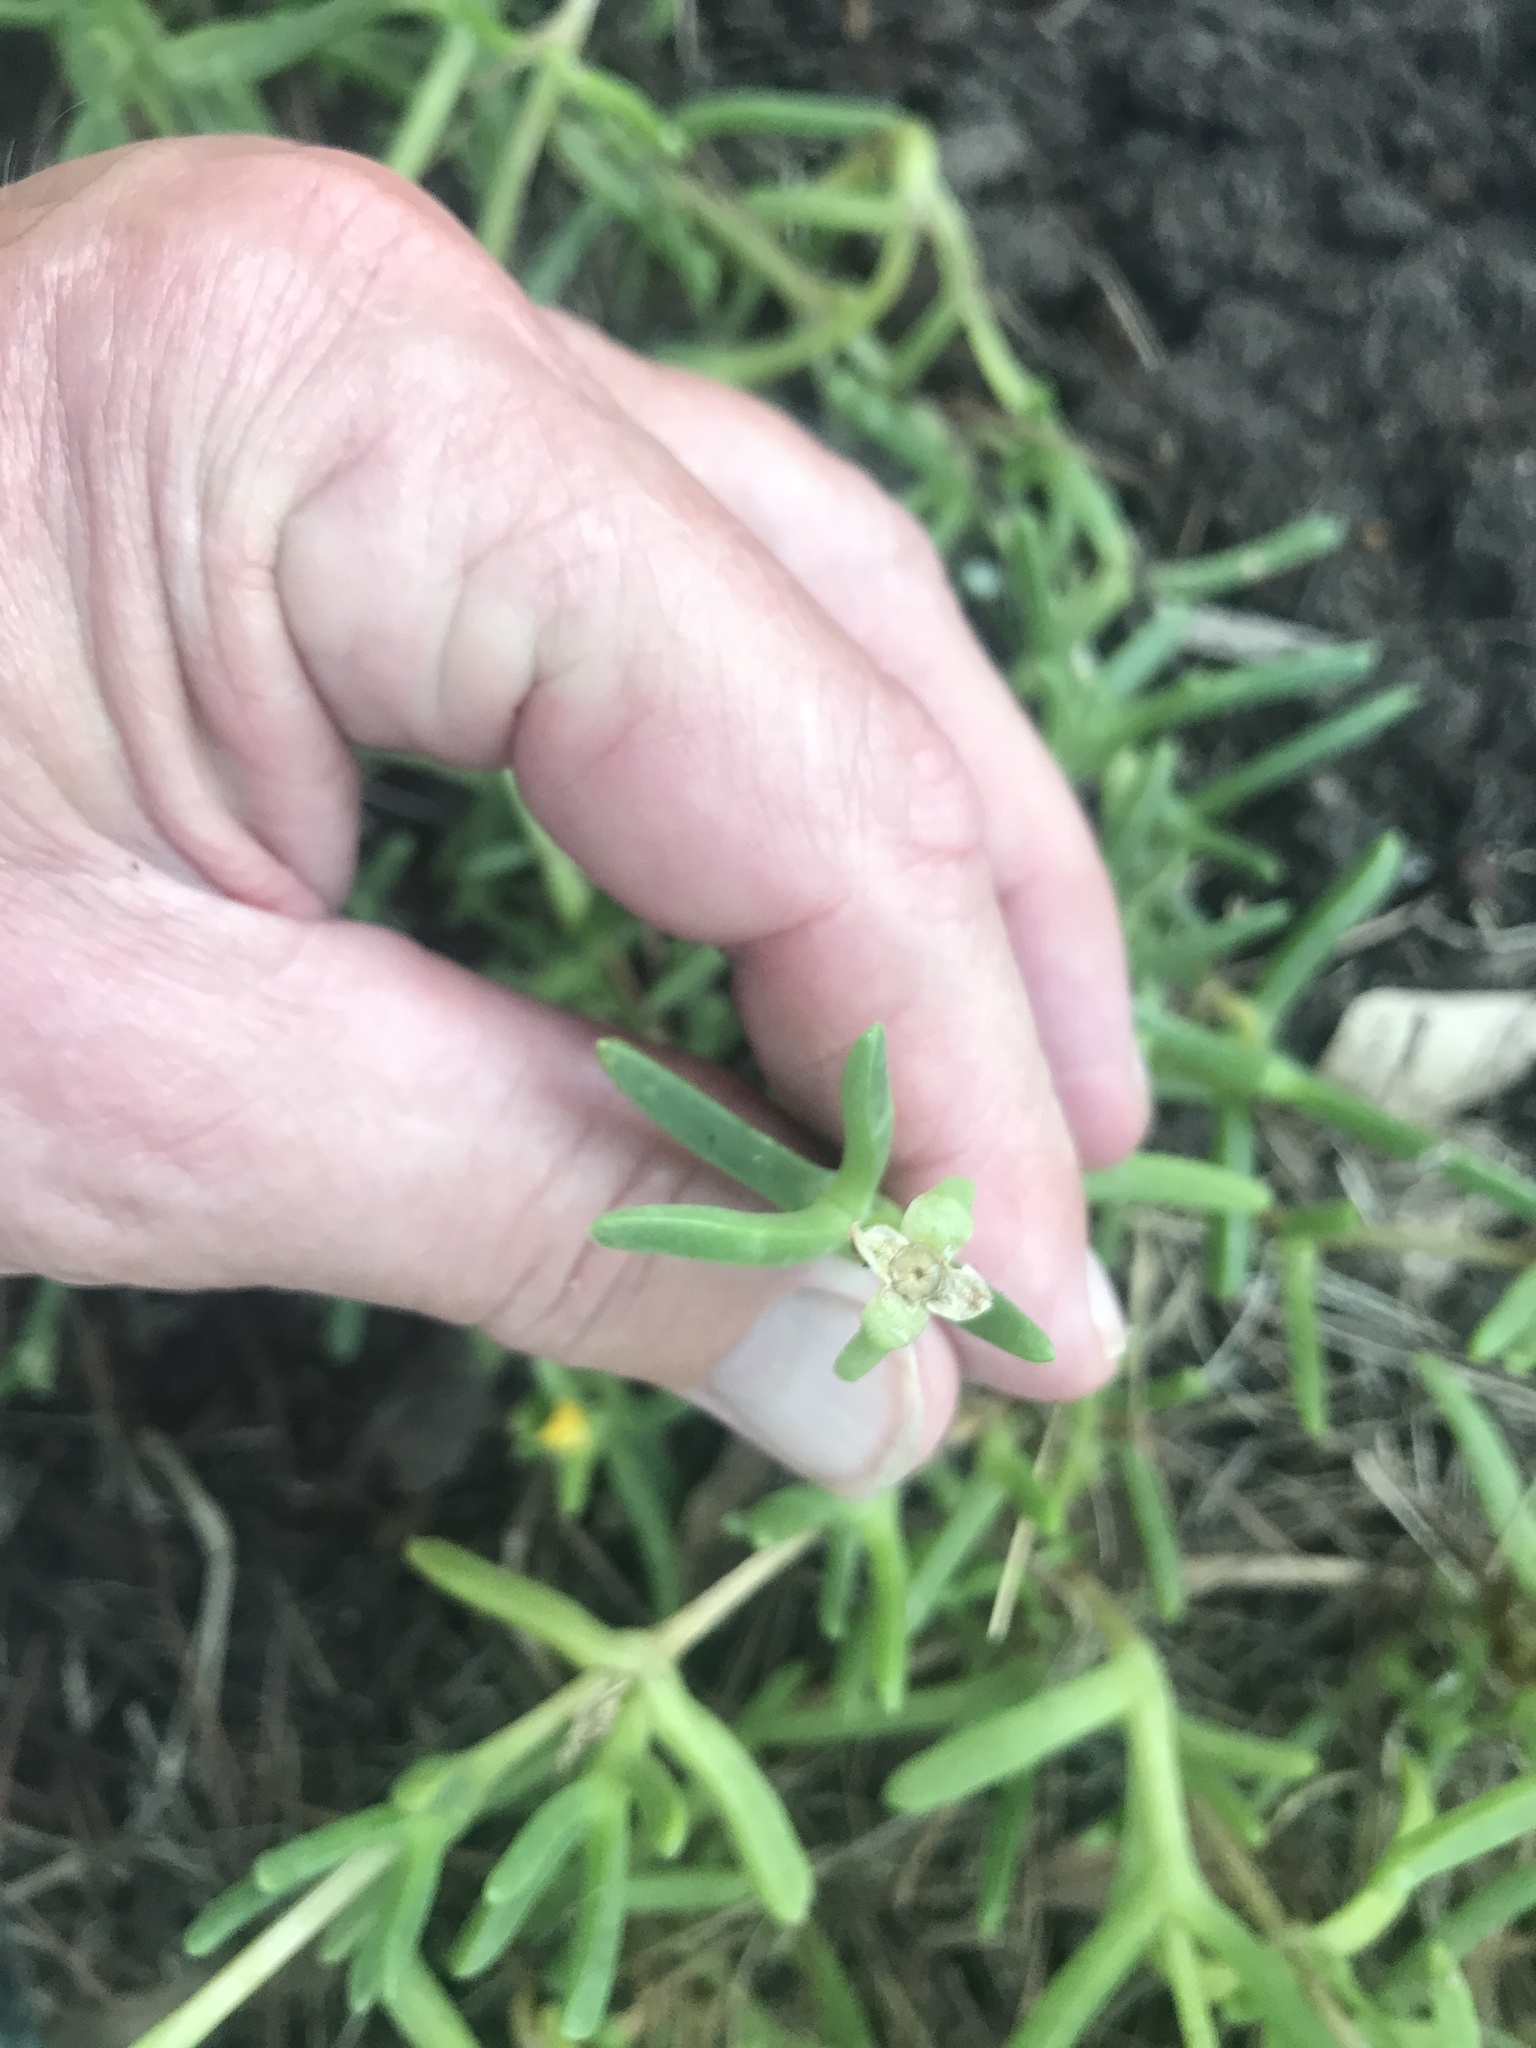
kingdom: Plantae
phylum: Tracheophyta
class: Magnoliopsida
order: Brassicales
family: Bataceae
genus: Batis
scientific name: Batis maritima
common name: Turtleweed
